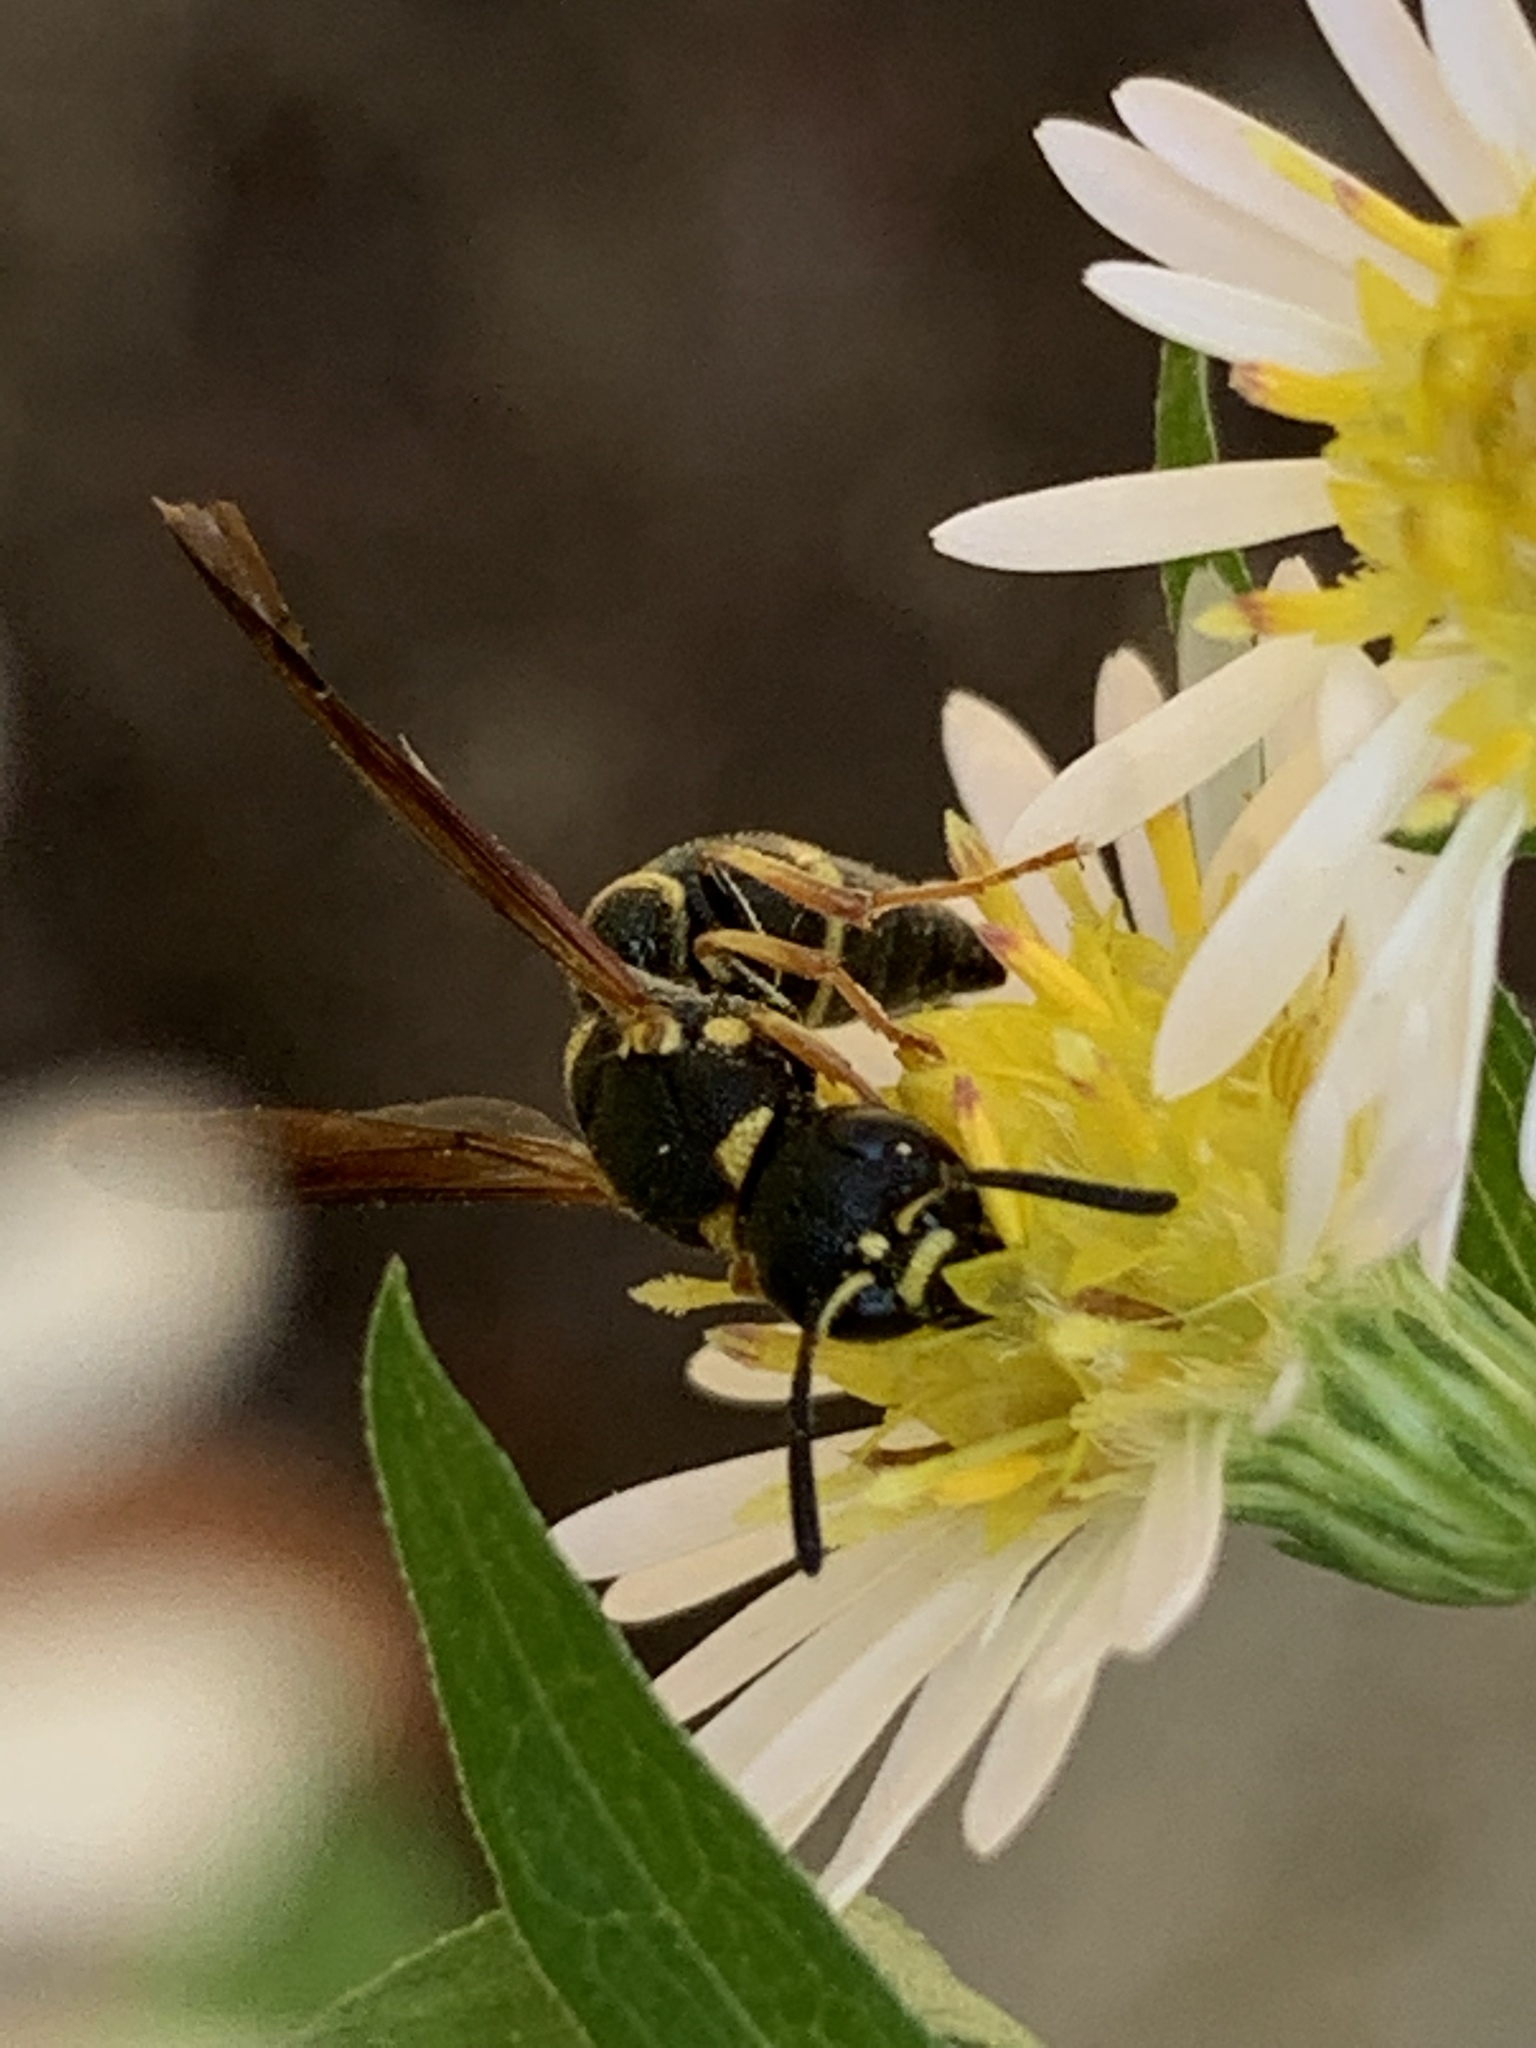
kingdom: Animalia
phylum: Arthropoda
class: Insecta
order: Hymenoptera
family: Eumenidae
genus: Parancistrocerus
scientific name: Parancistrocerus perennis
